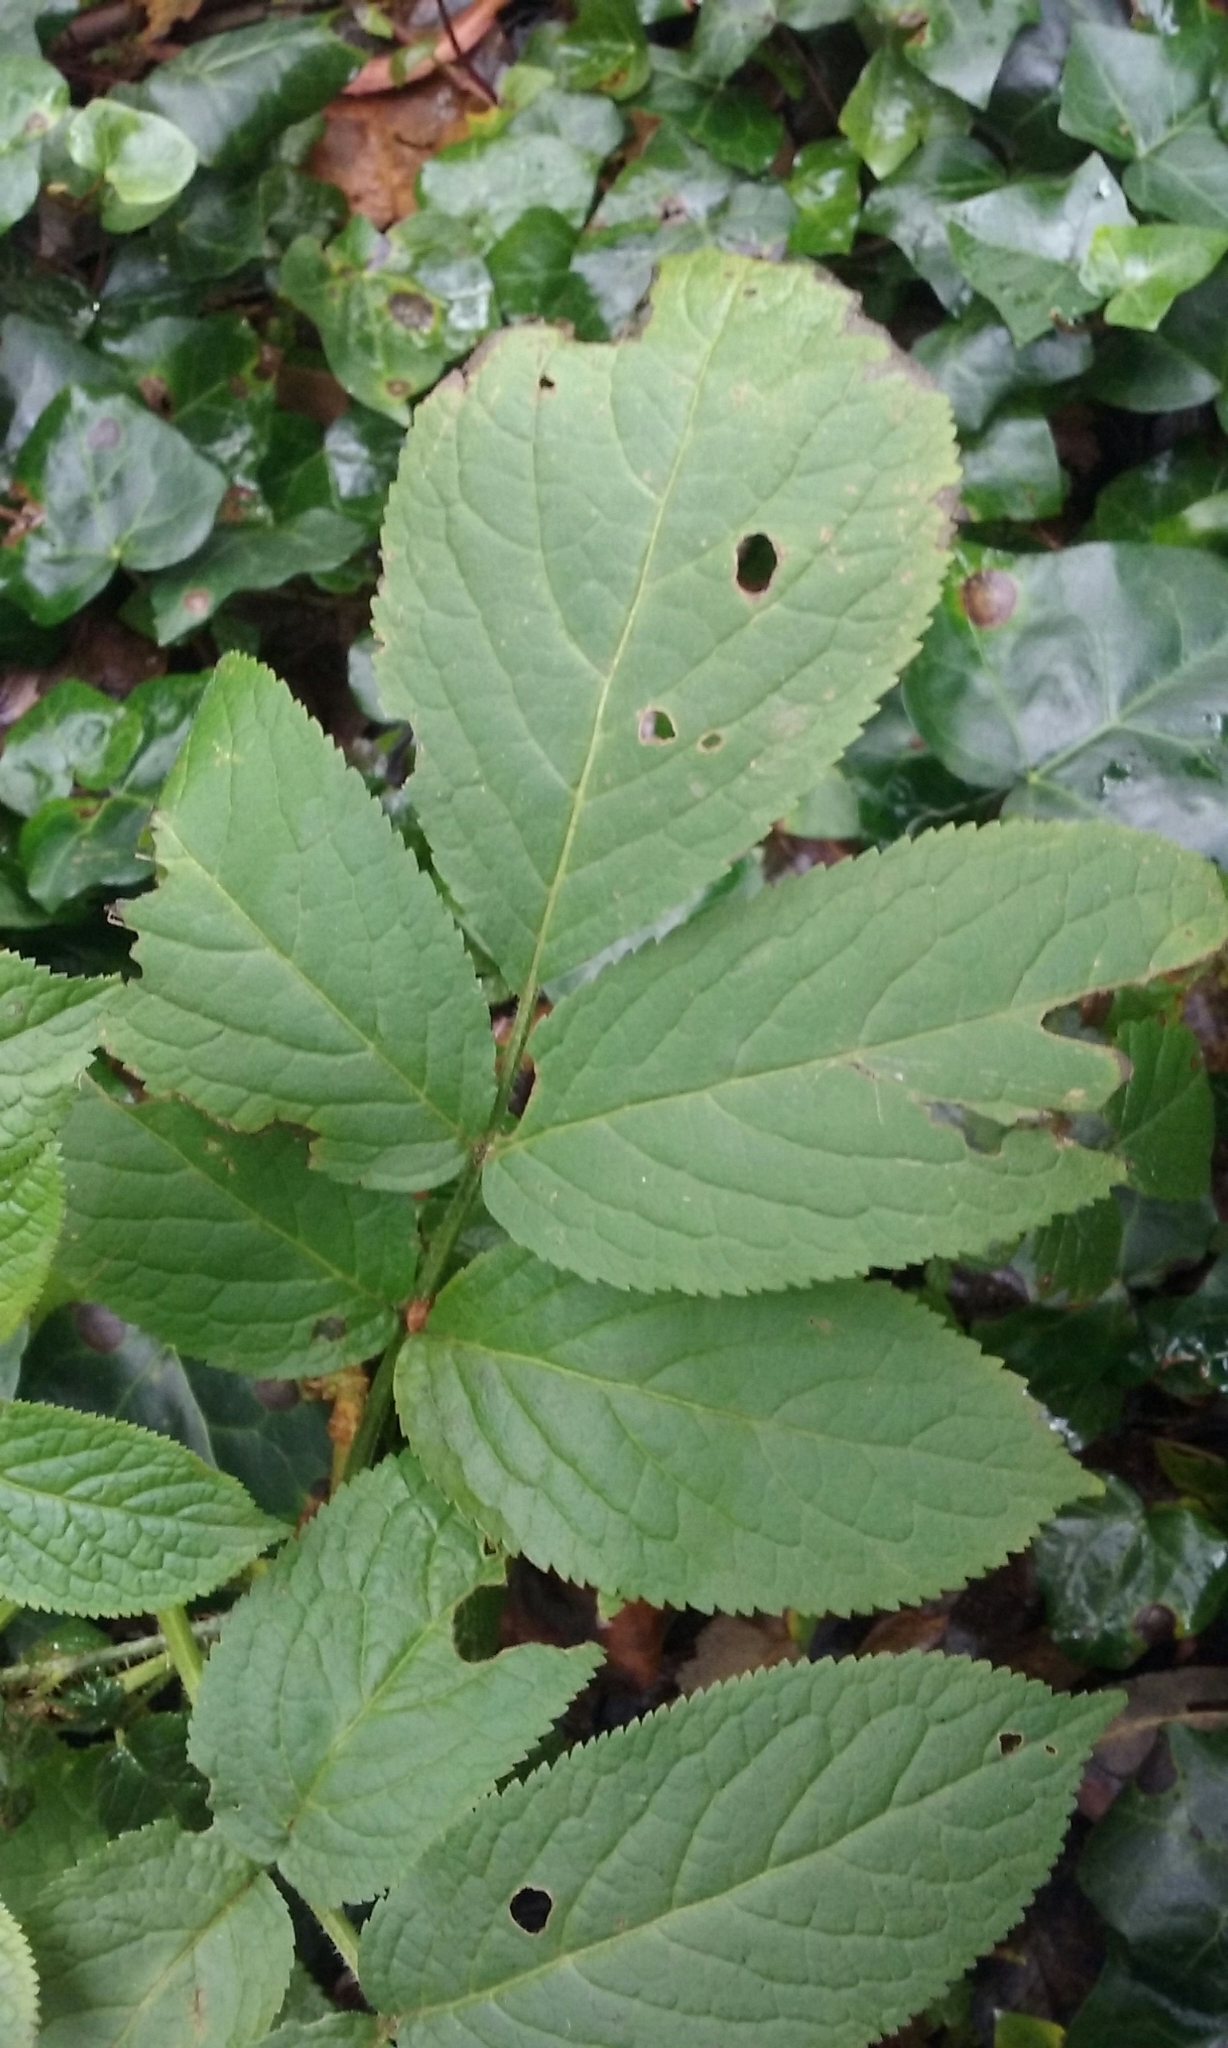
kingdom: Plantae
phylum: Tracheophyta
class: Magnoliopsida
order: Dipsacales
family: Viburnaceae
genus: Sambucus
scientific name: Sambucus racemosa
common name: Red-berried elder
